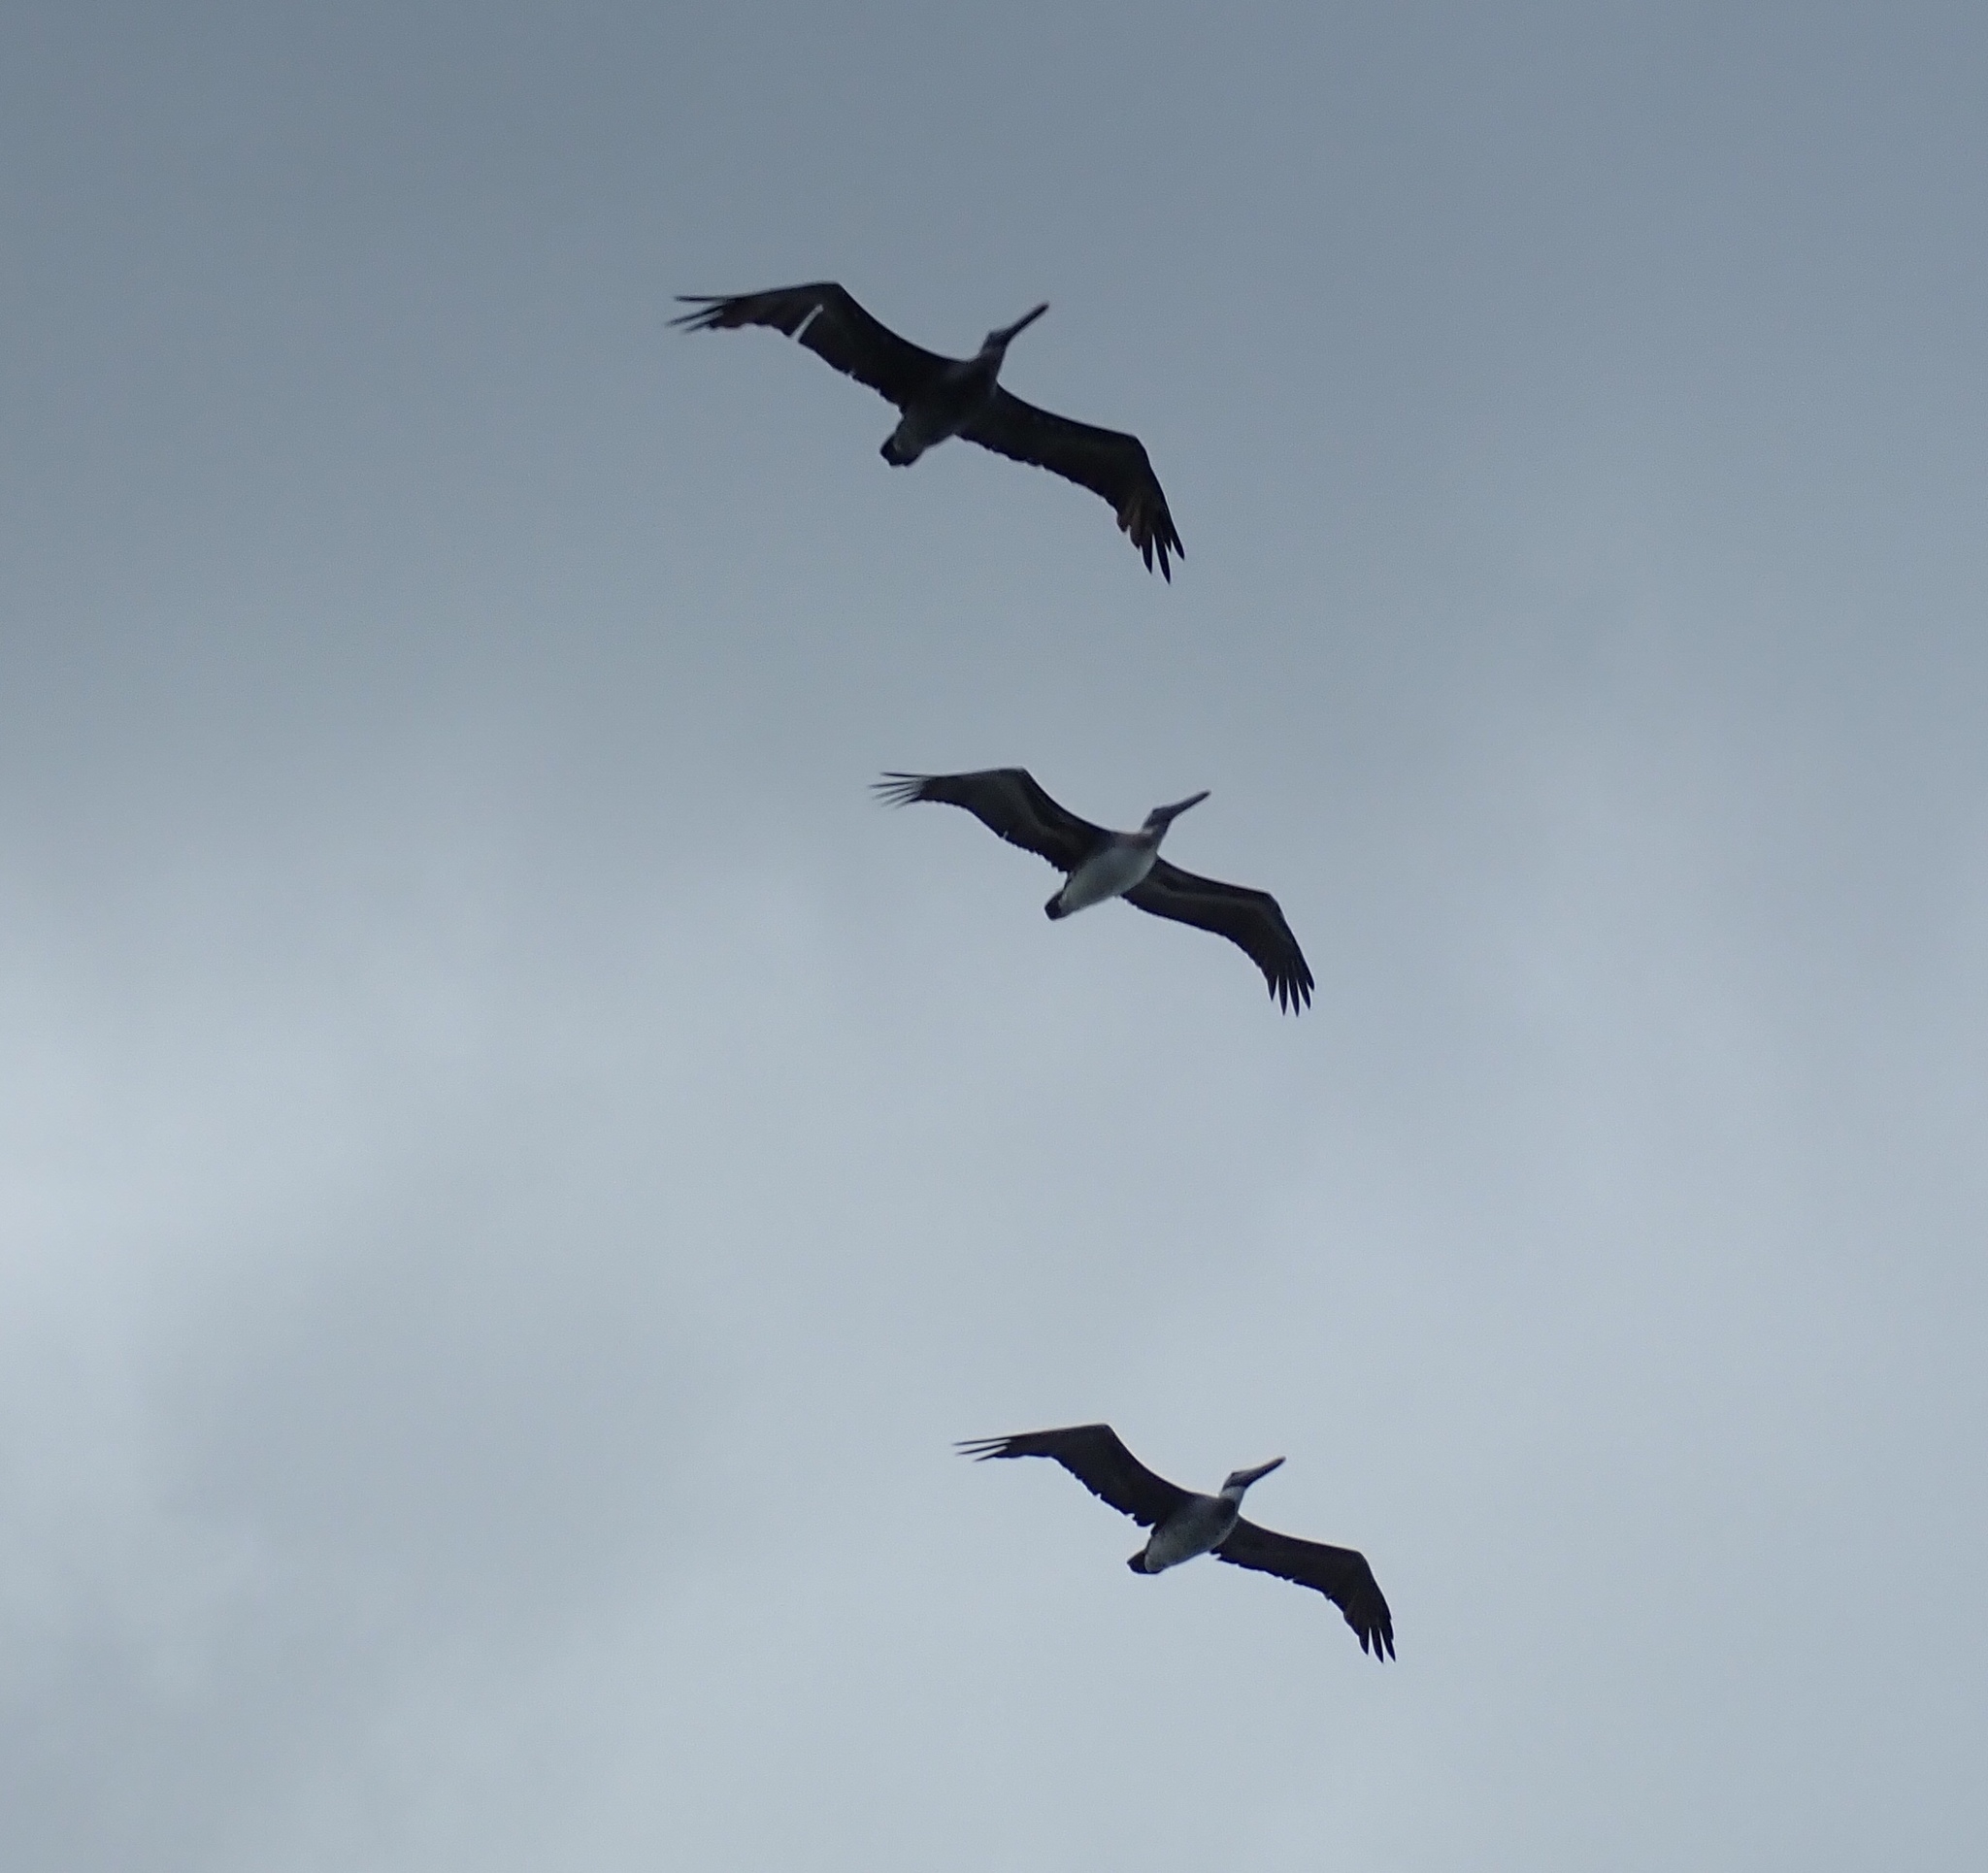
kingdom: Animalia
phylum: Chordata
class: Aves
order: Pelecaniformes
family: Pelecanidae
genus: Pelecanus
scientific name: Pelecanus occidentalis
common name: Brown pelican
